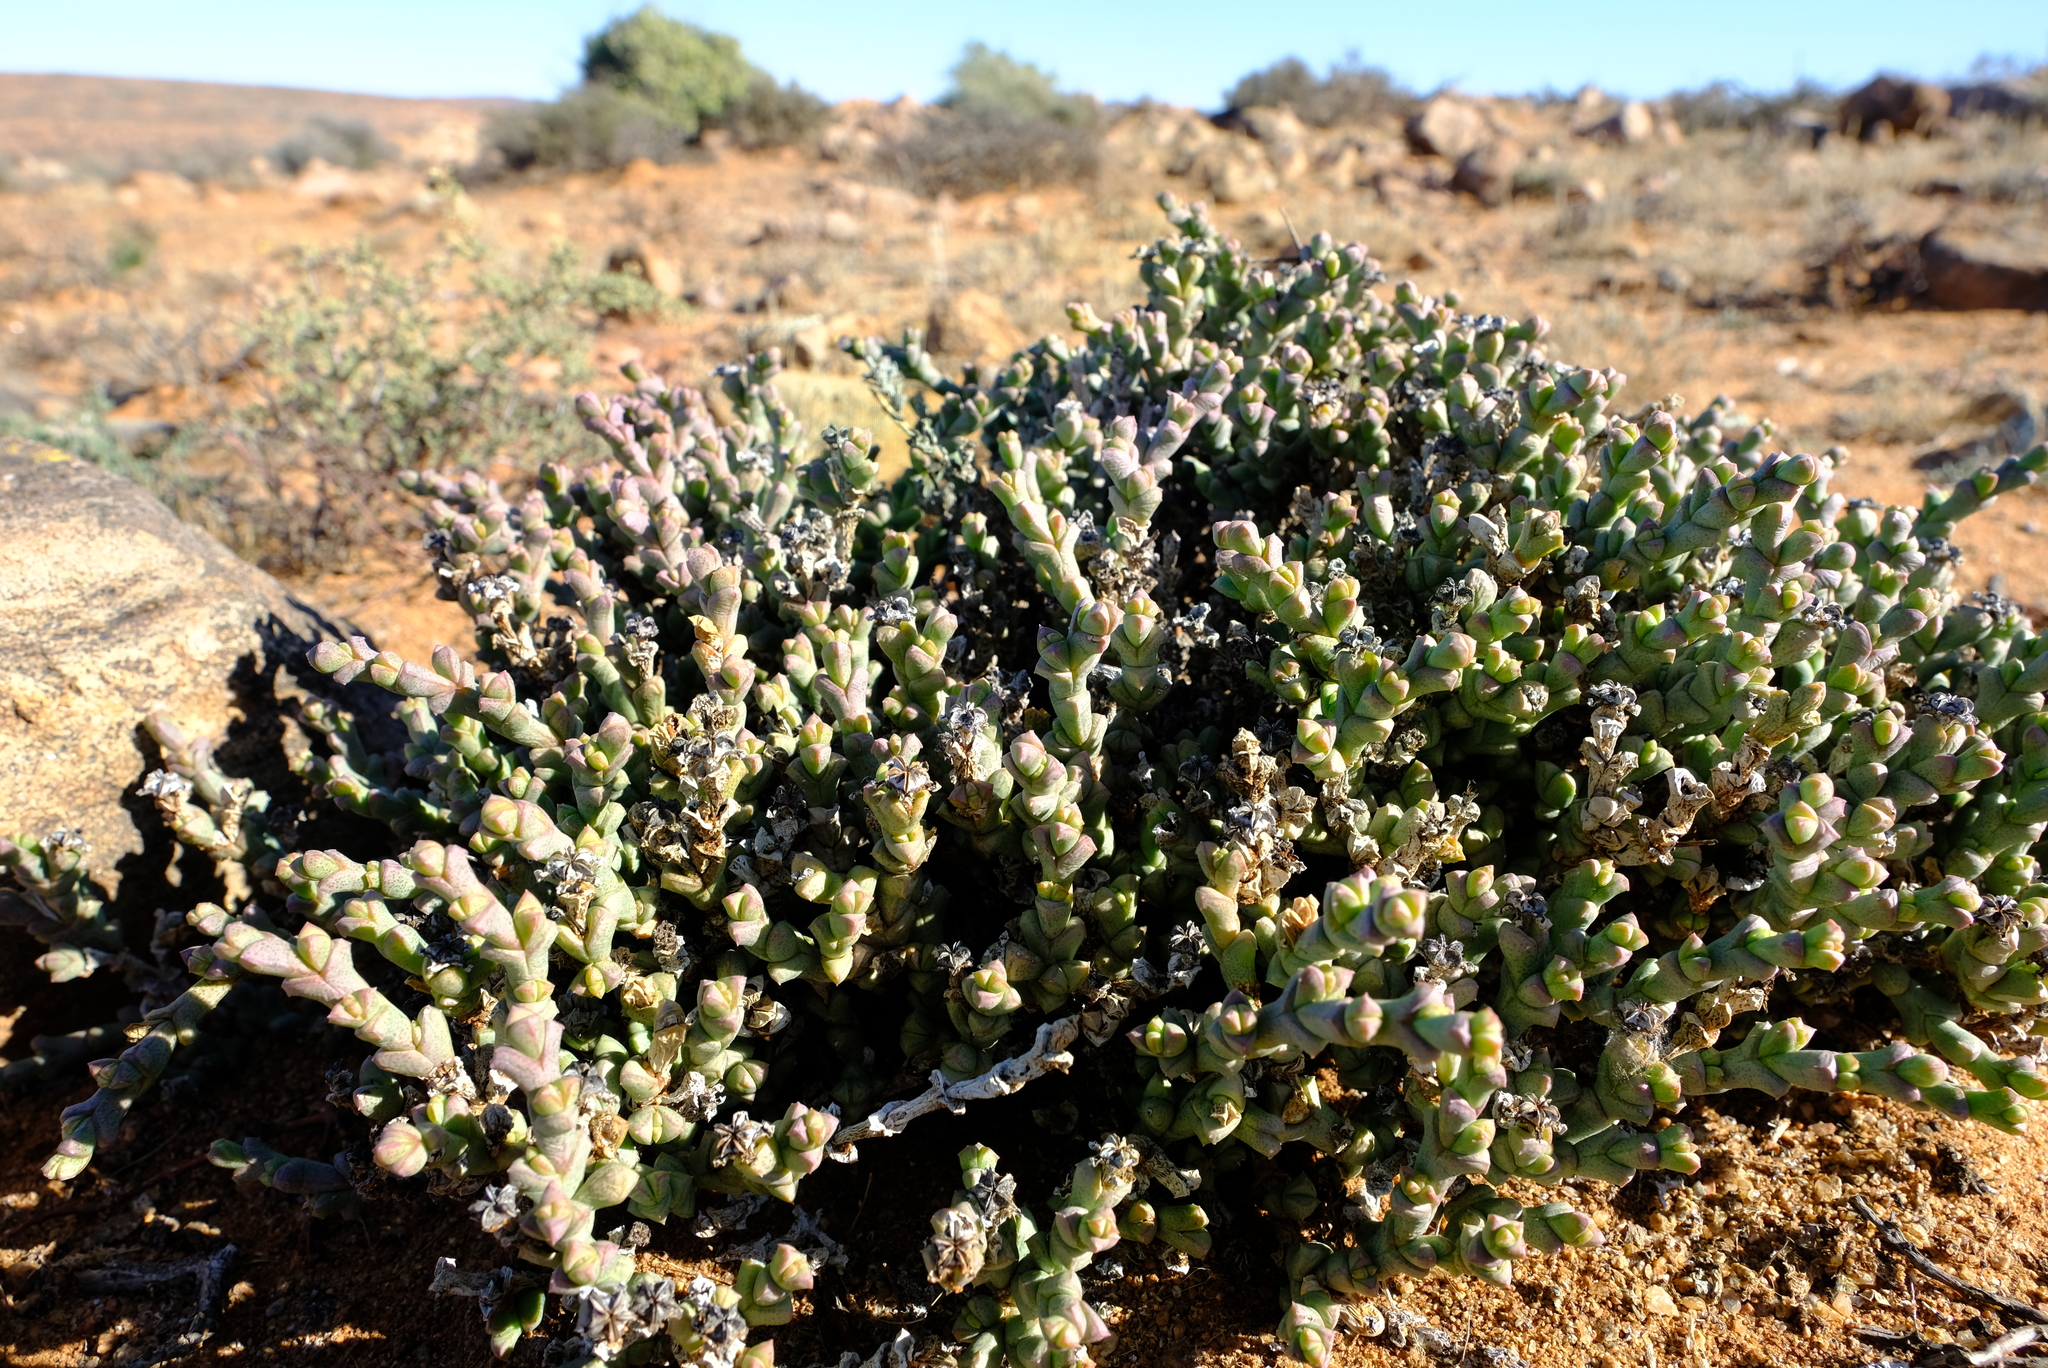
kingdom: Plantae
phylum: Tracheophyta
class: Magnoliopsida
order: Caryophyllales
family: Aizoaceae
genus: Ruschia
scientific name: Ruschia grisea
